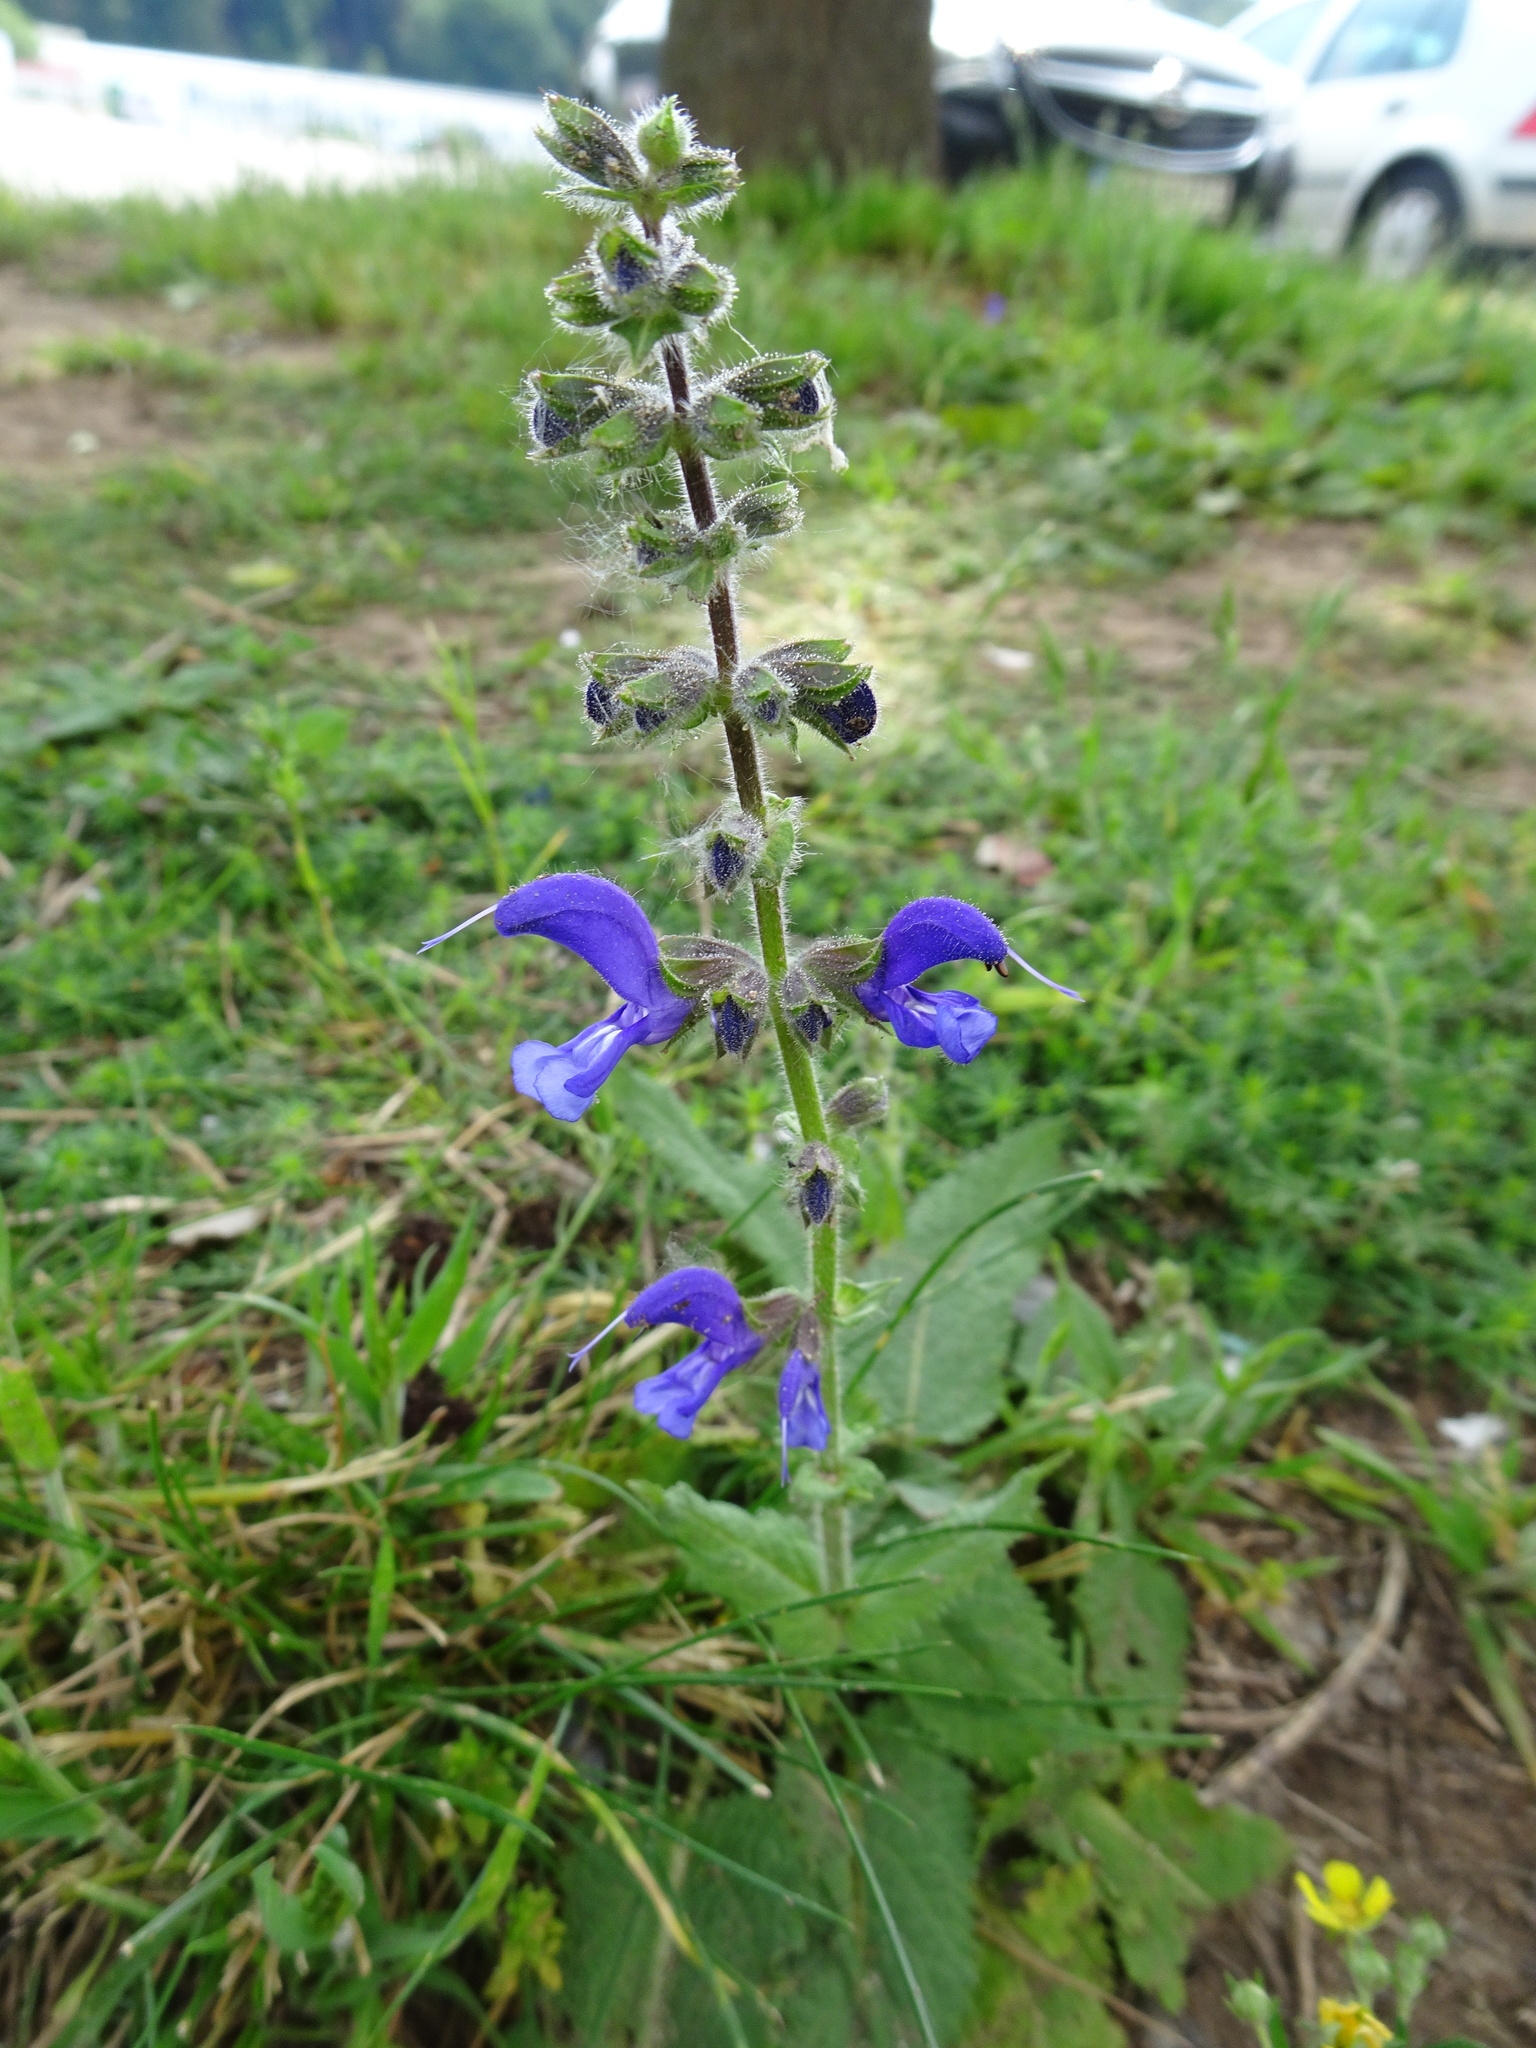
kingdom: Plantae
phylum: Tracheophyta
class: Magnoliopsida
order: Lamiales
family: Lamiaceae
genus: Salvia
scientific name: Salvia pratensis
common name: Meadow sage
